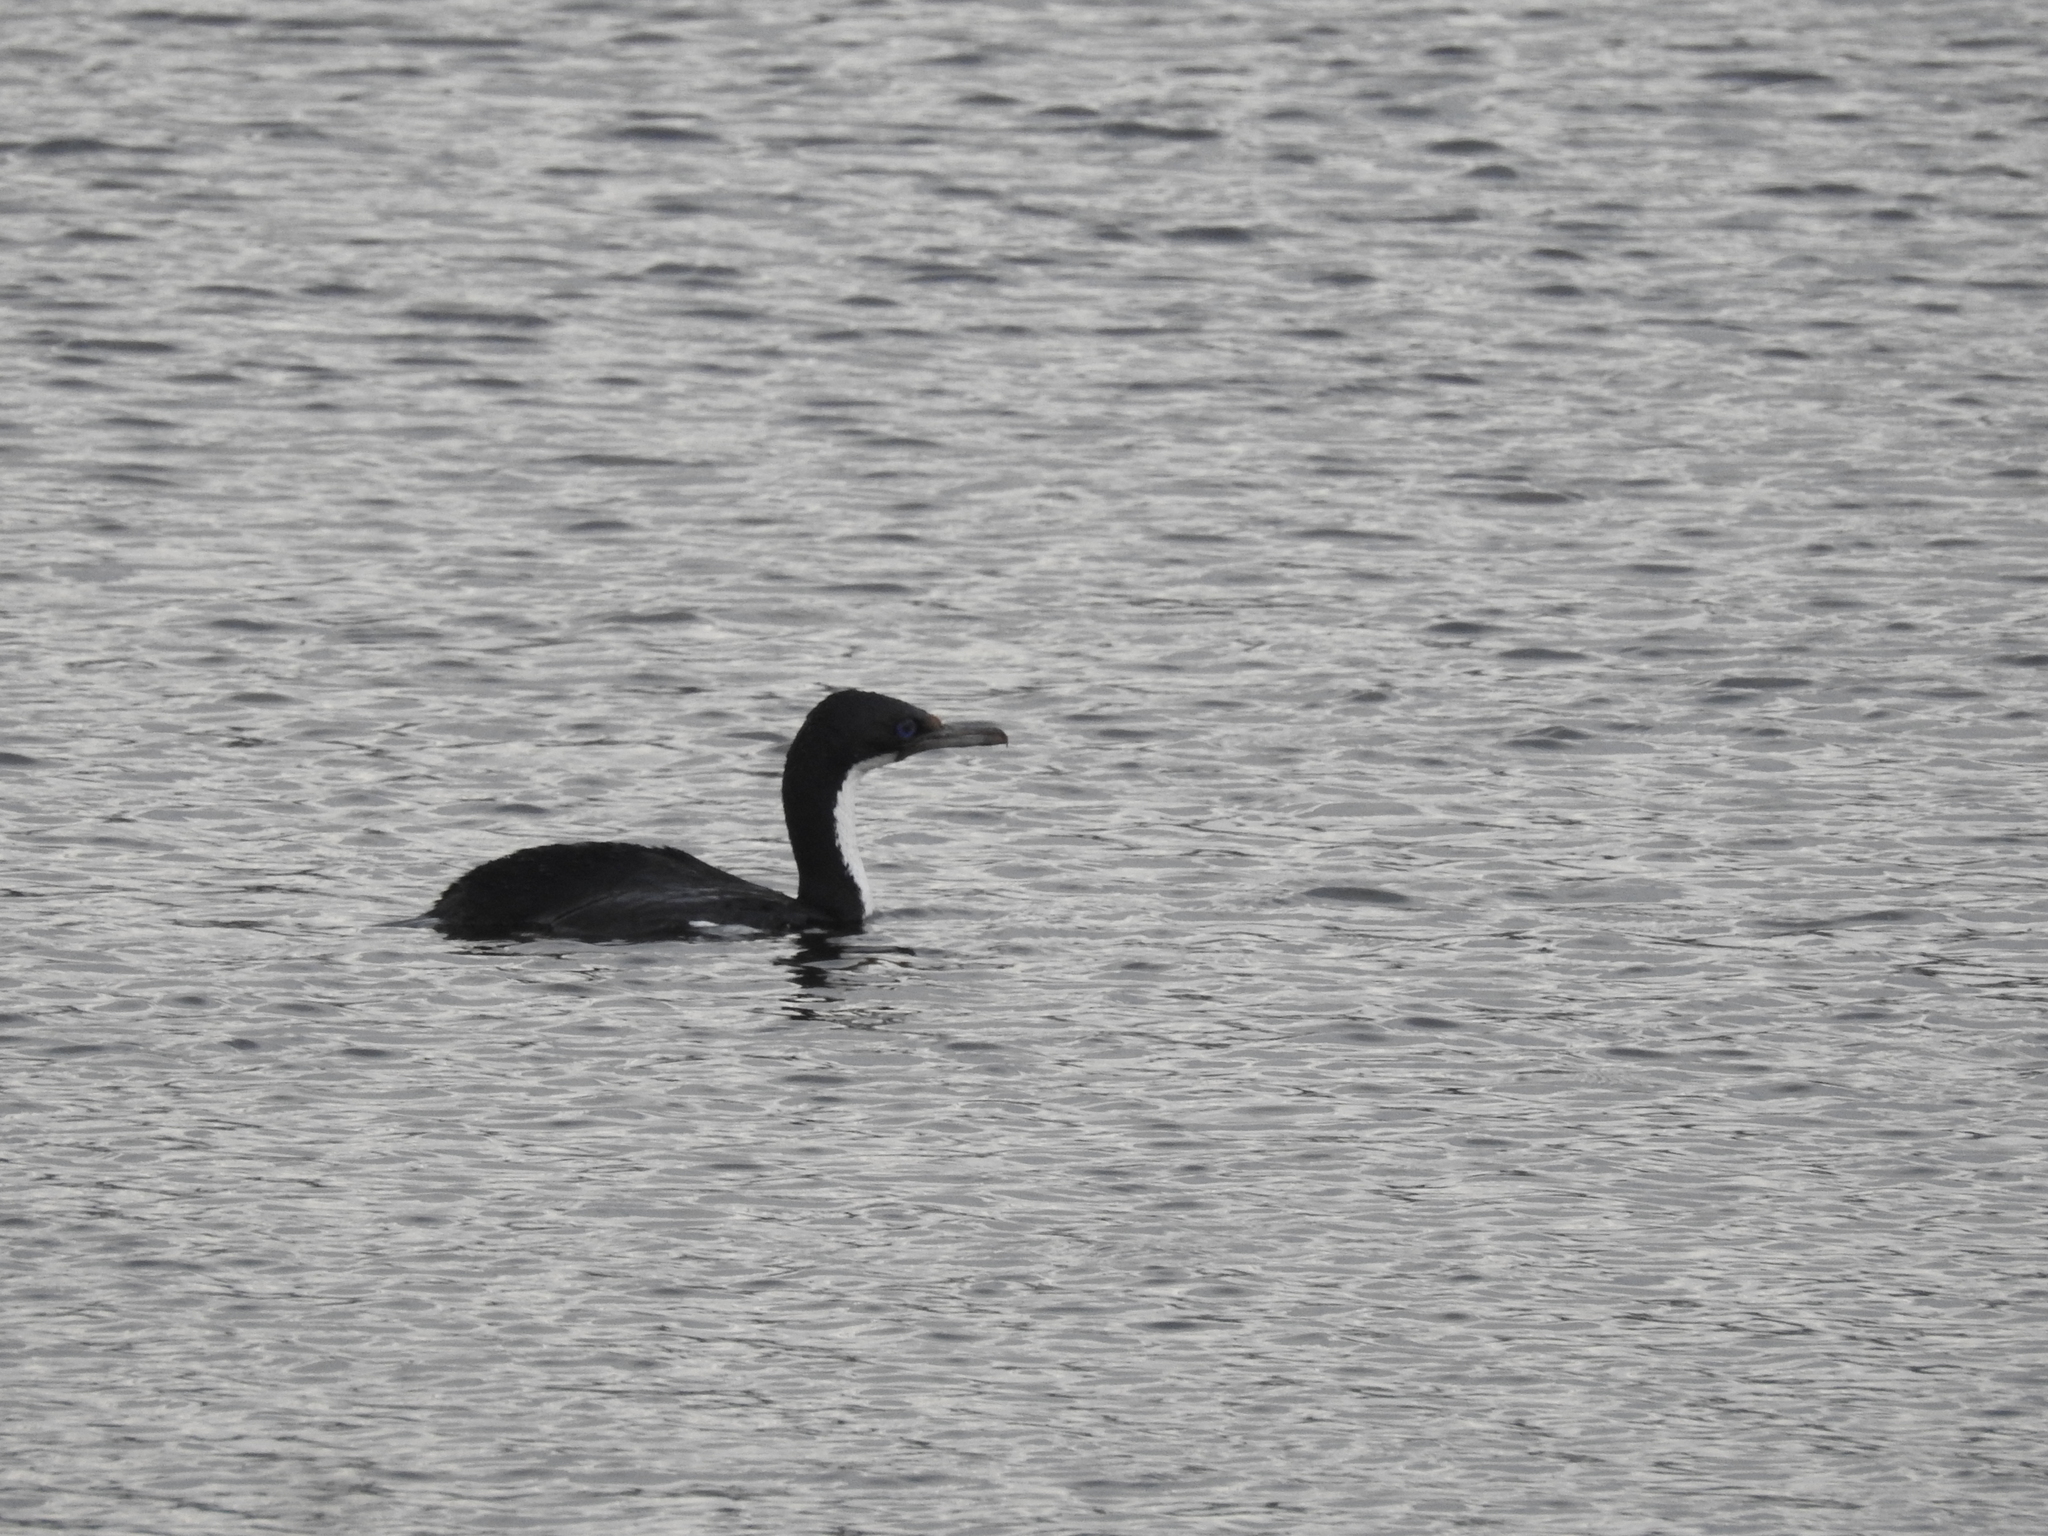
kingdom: Animalia
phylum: Chordata
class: Aves
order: Suliformes
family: Phalacrocoracidae
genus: Leucocarbo
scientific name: Leucocarbo albiventer
